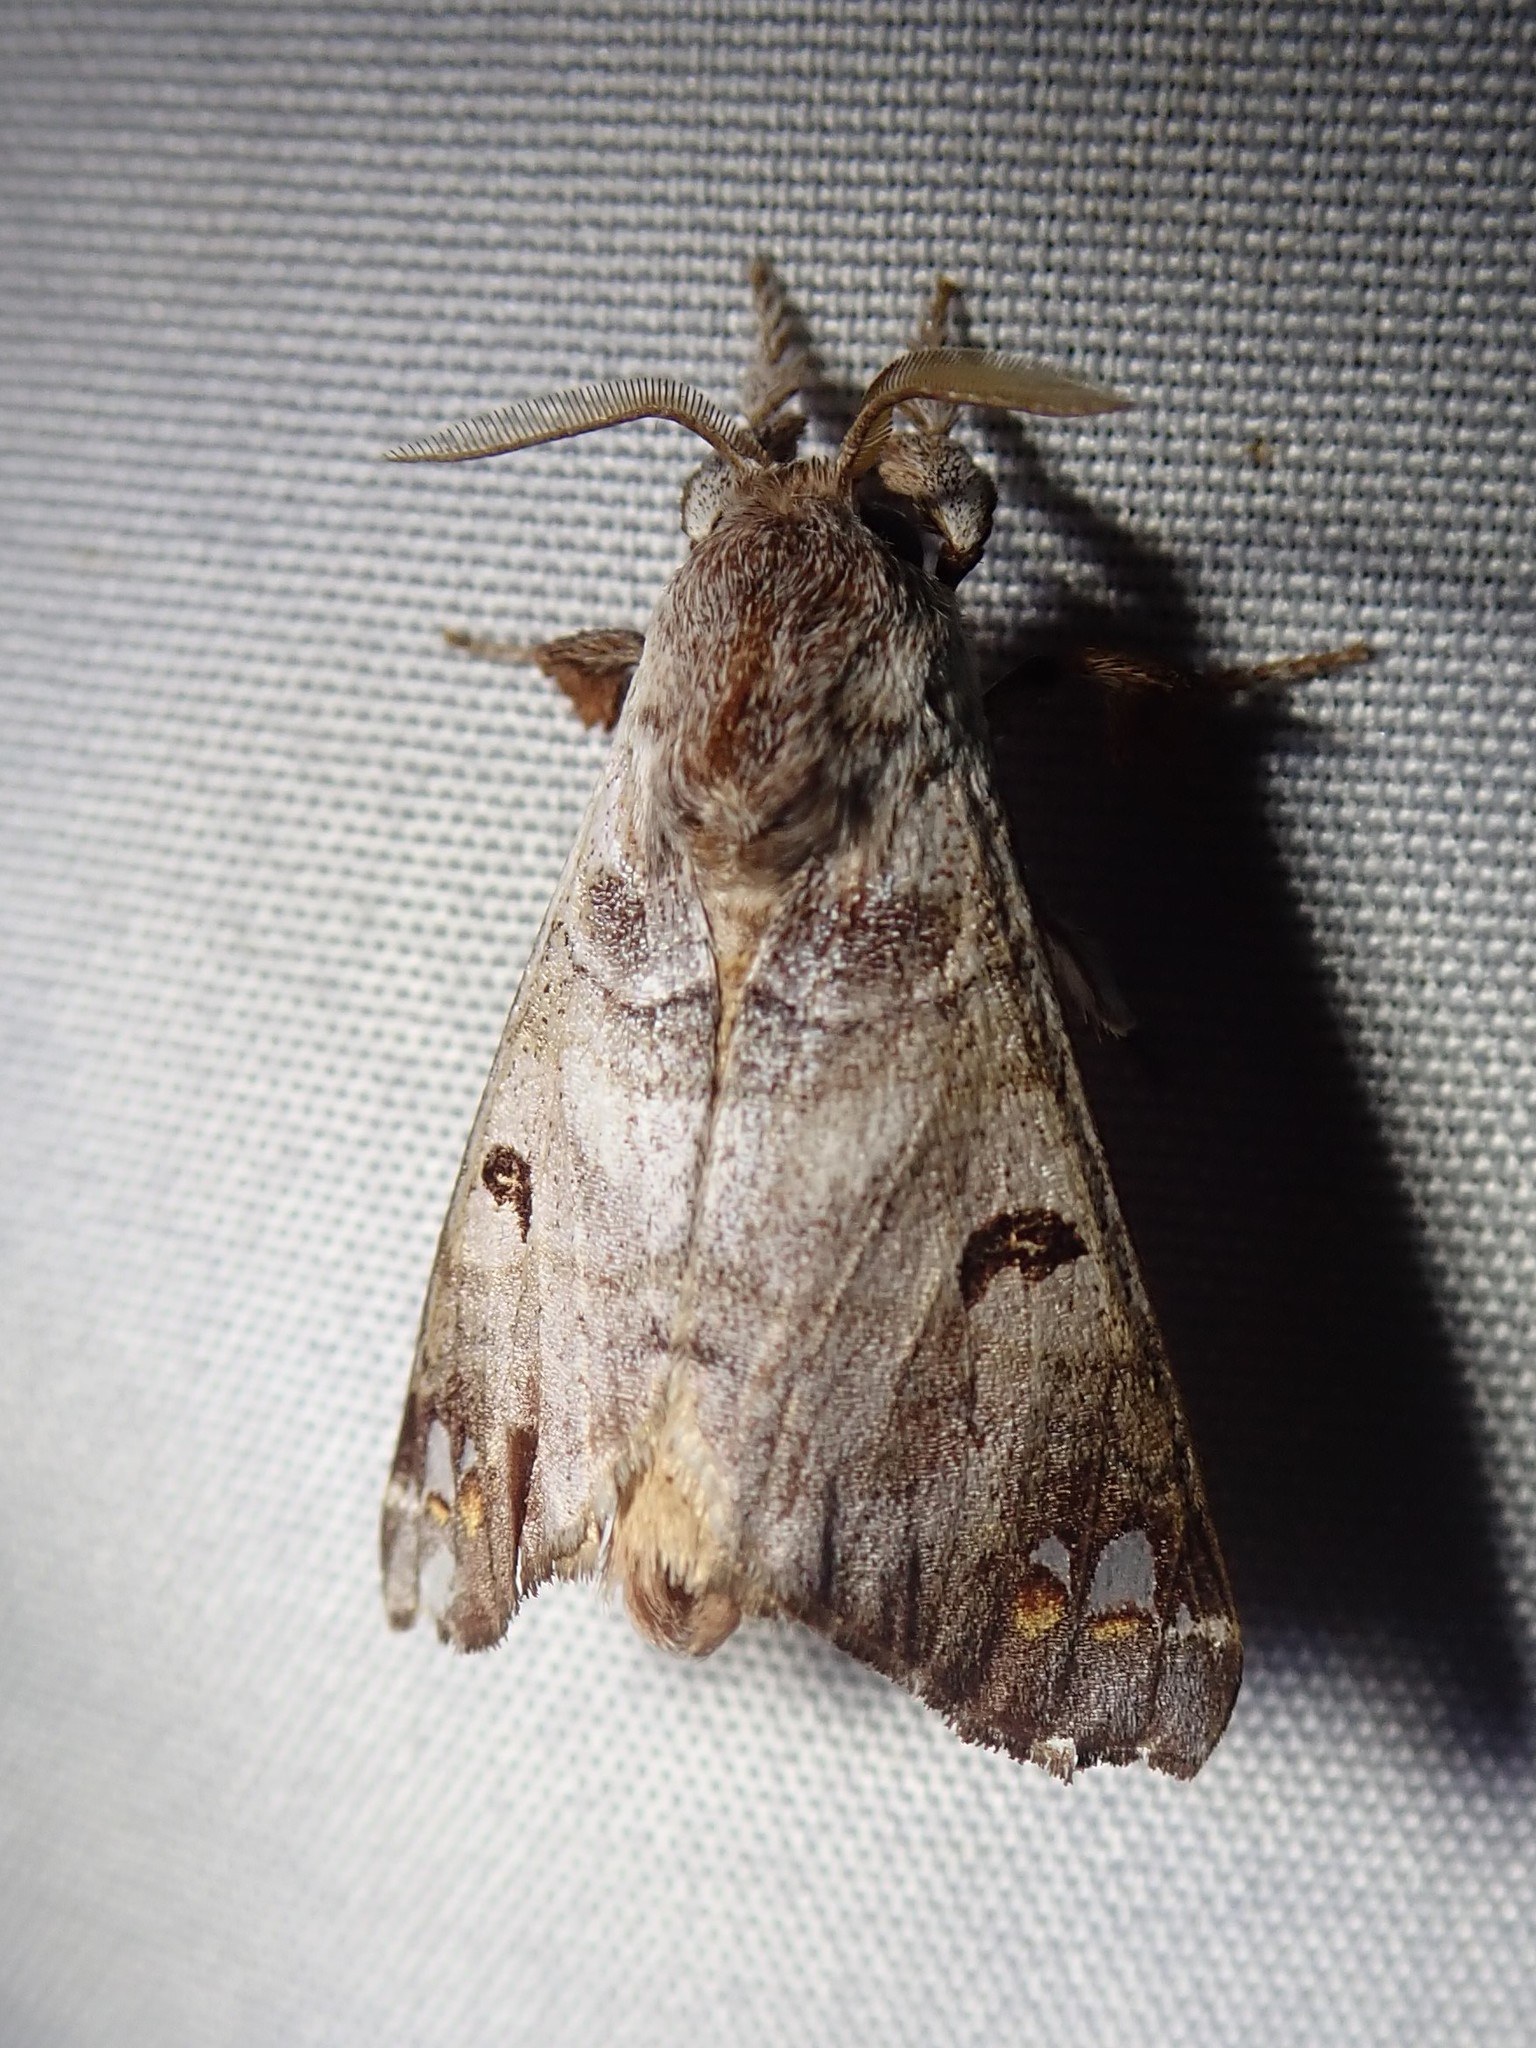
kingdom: Animalia
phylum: Arthropoda
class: Insecta
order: Lepidoptera
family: Apatelodidae
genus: Pantelodes
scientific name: Pantelodes centralamericana
